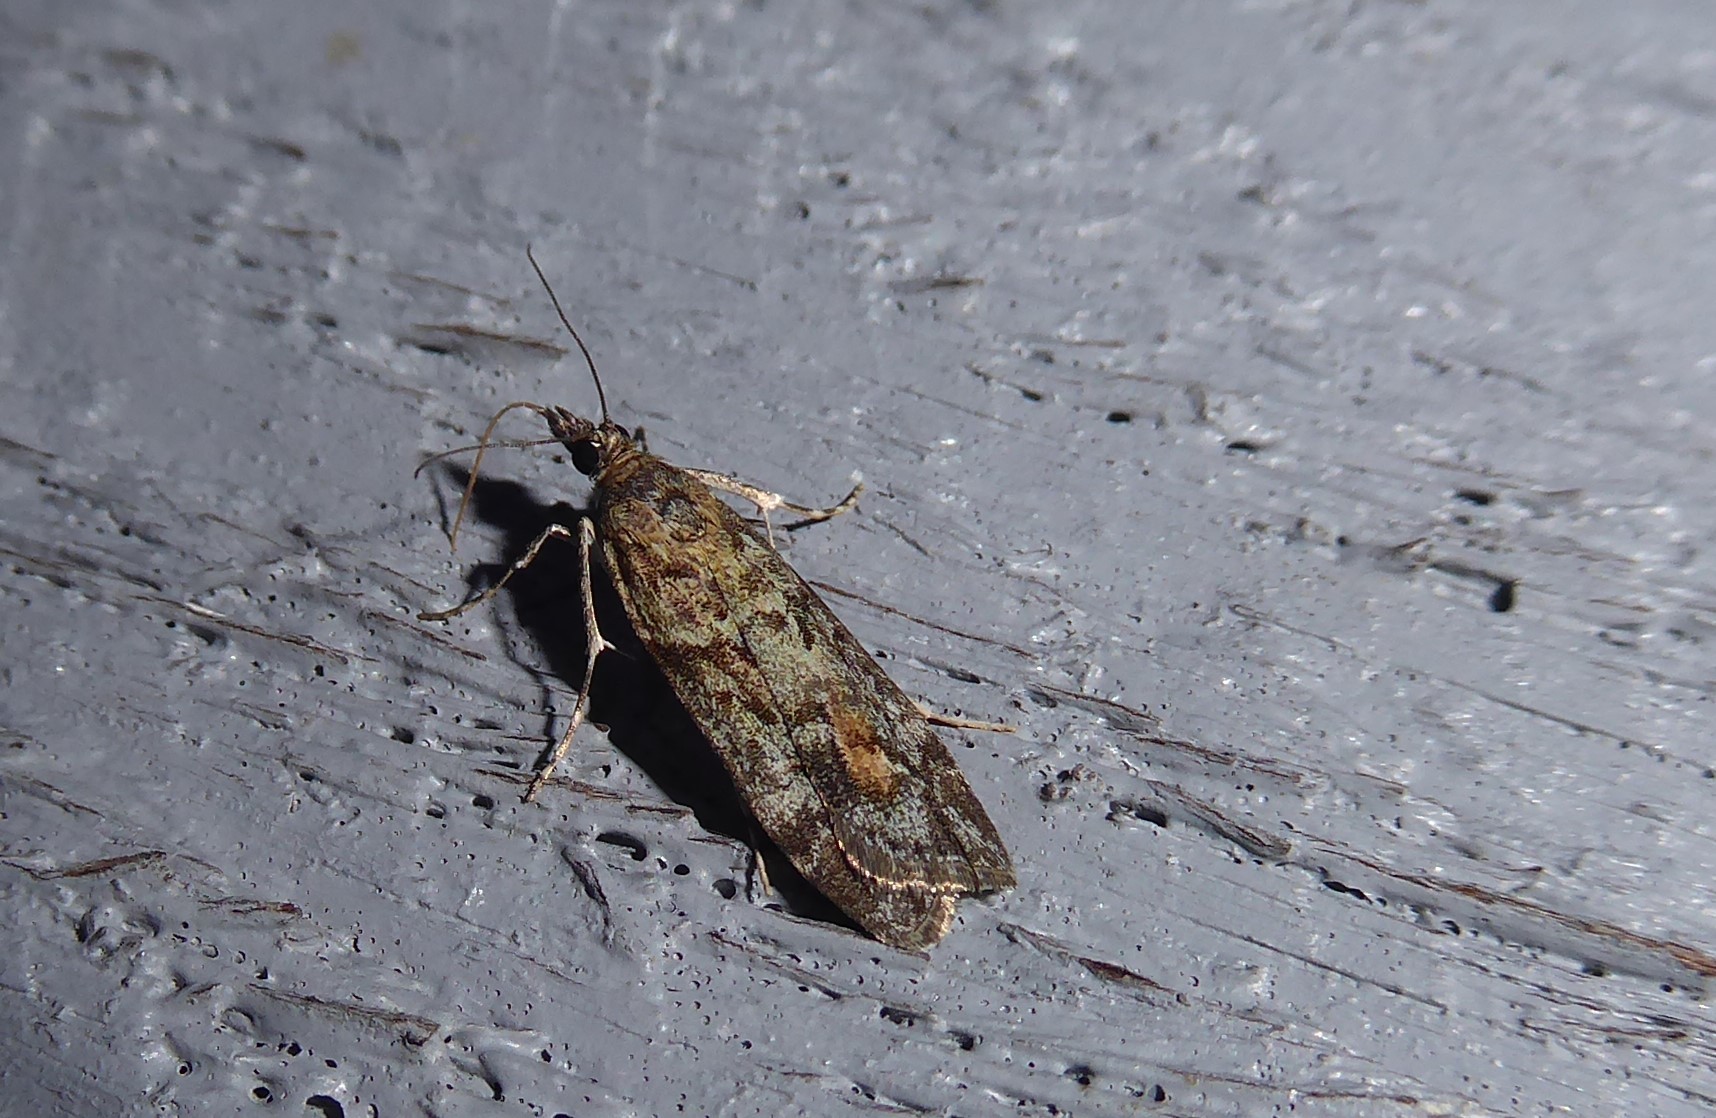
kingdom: Animalia
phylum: Arthropoda
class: Insecta
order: Lepidoptera
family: Crambidae
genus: Eudonia
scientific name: Eudonia submarginalis
